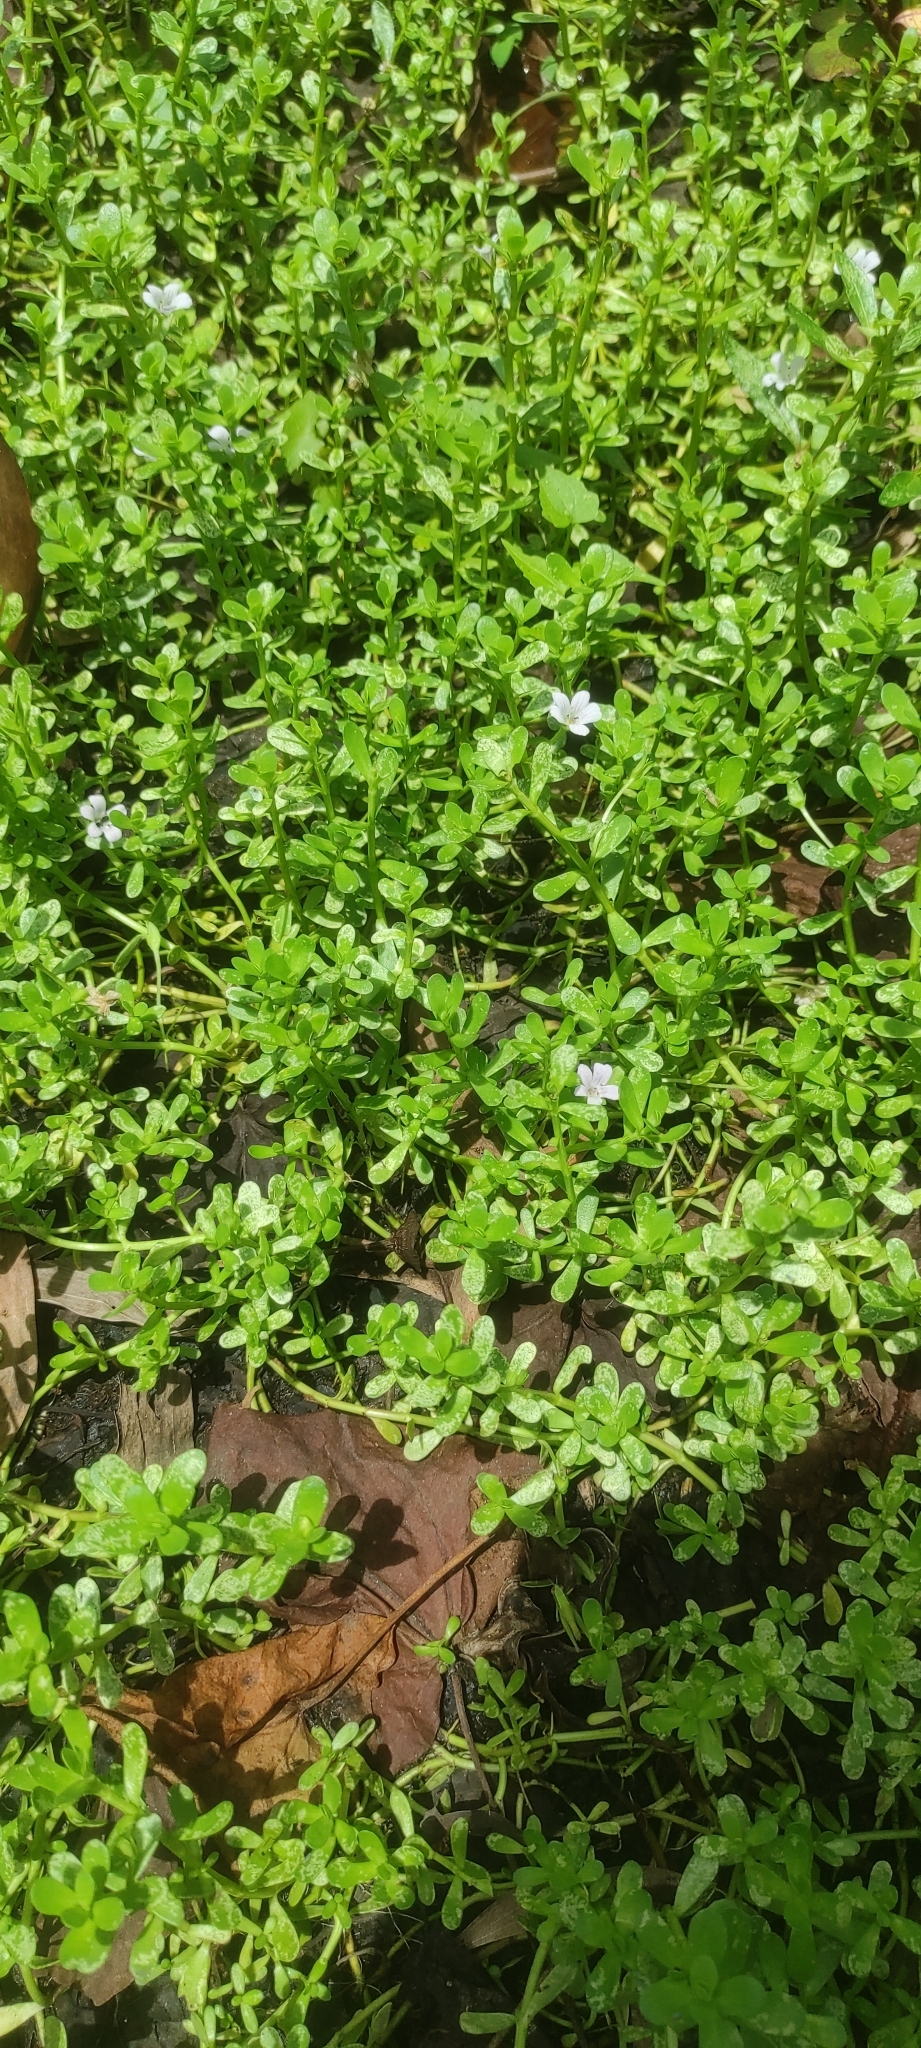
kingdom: Plantae
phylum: Tracheophyta
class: Magnoliopsida
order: Lamiales
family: Plantaginaceae
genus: Bacopa
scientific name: Bacopa monnieri
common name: Indian-pennywort
